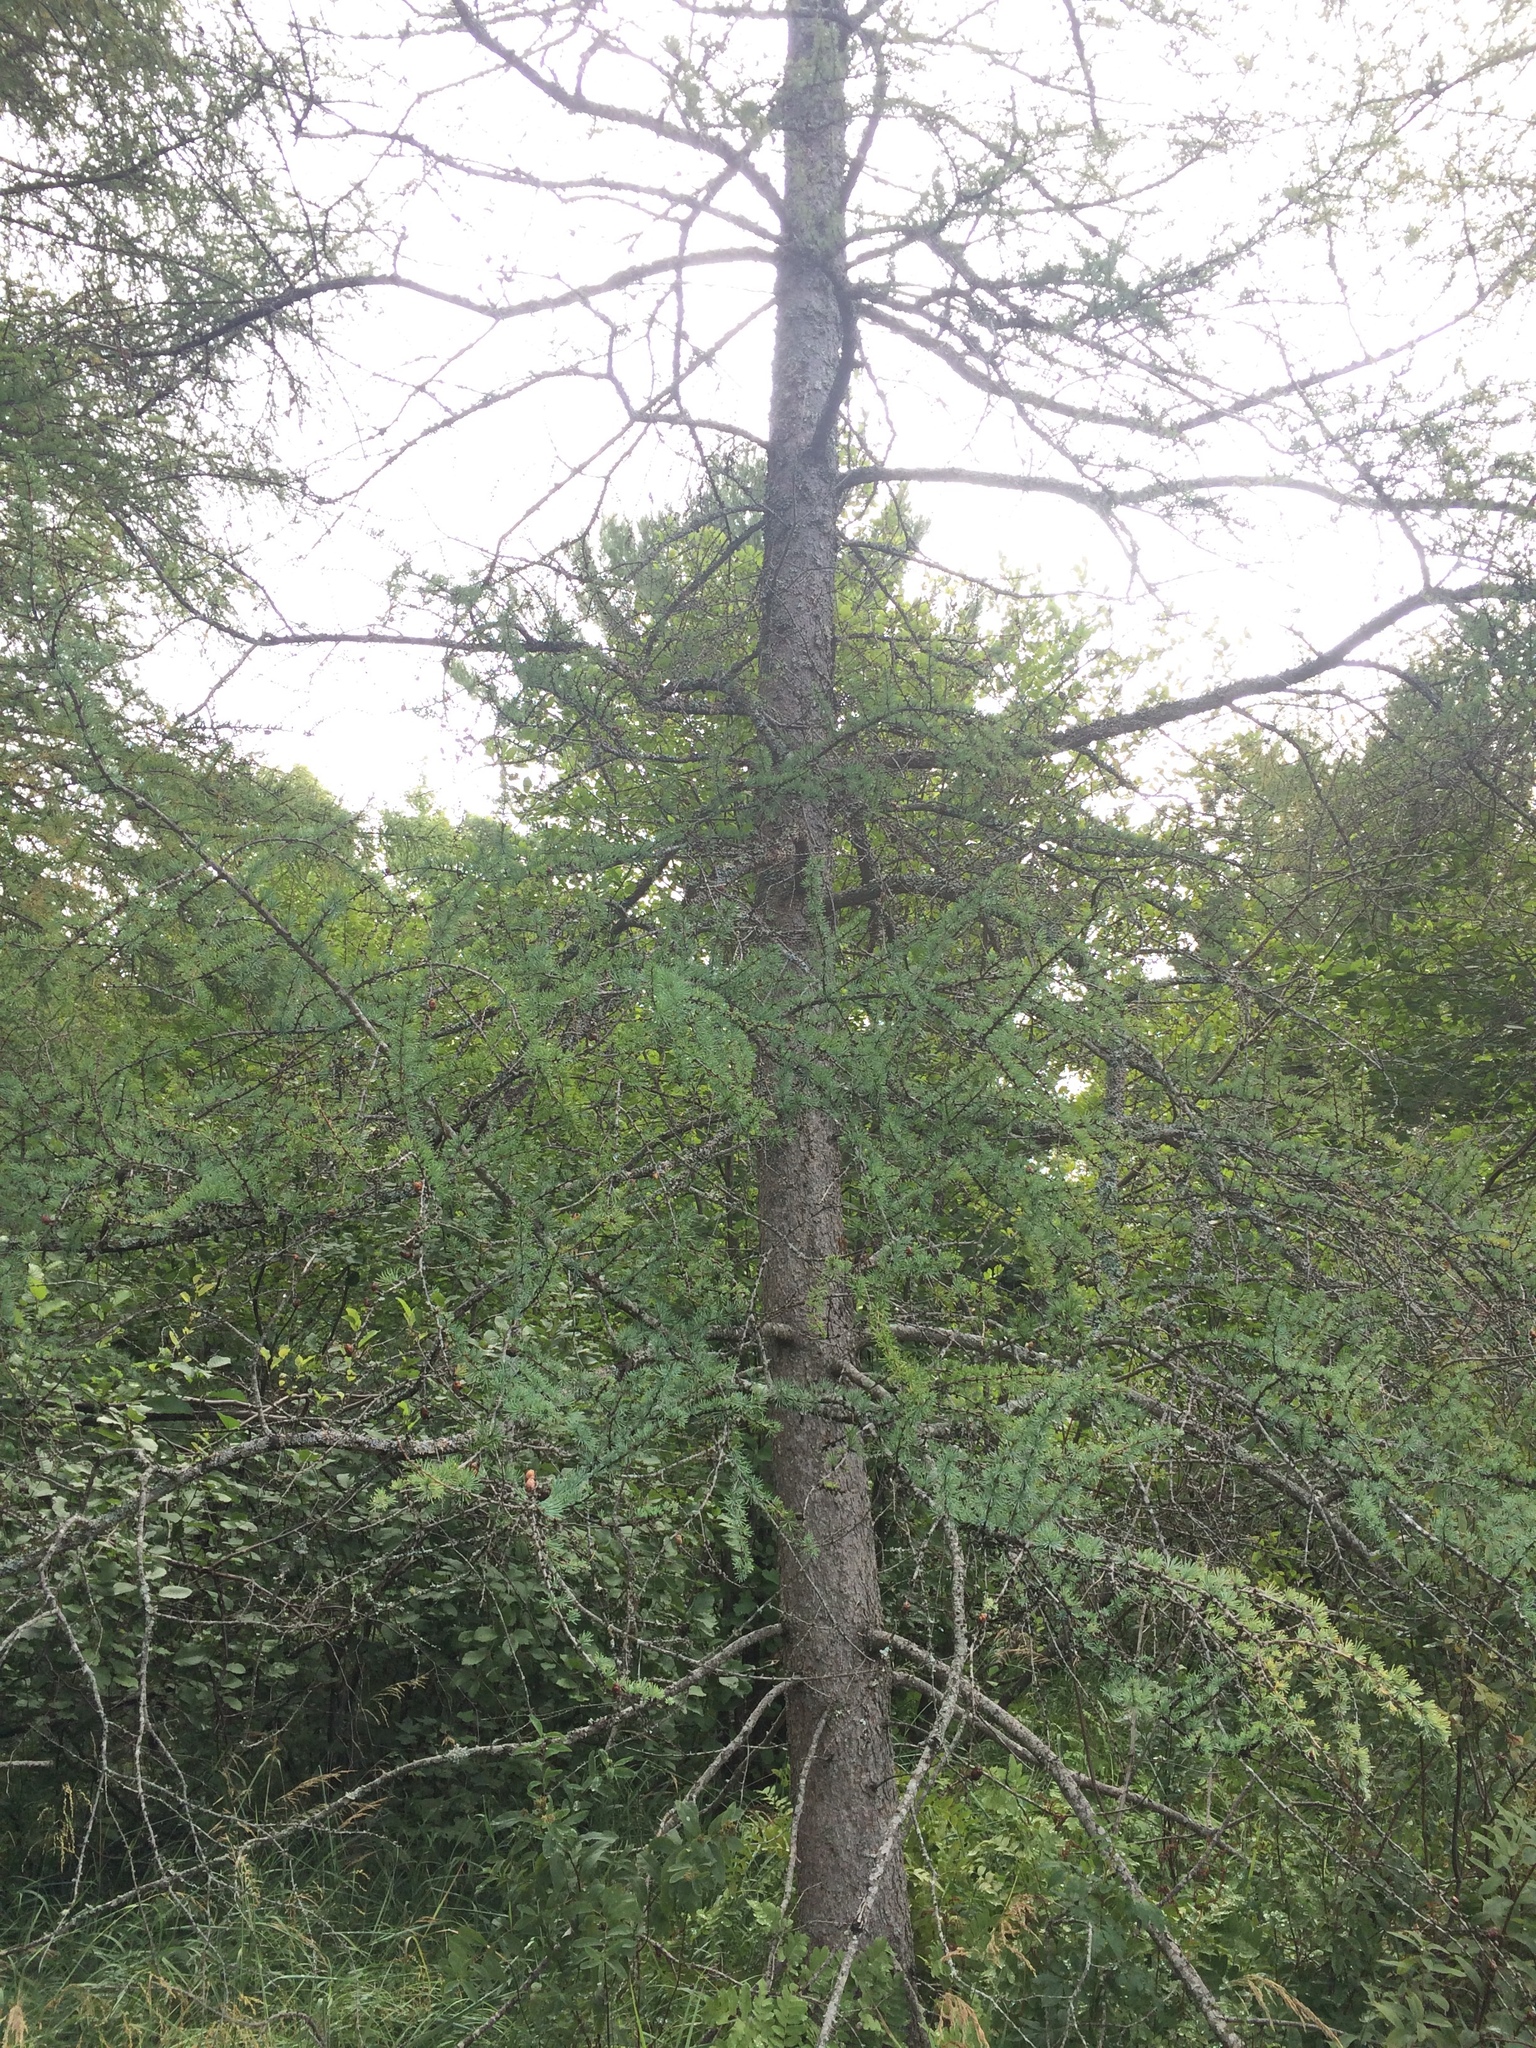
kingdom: Plantae
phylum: Tracheophyta
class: Pinopsida
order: Pinales
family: Pinaceae
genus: Larix
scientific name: Larix laricina
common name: American larch
